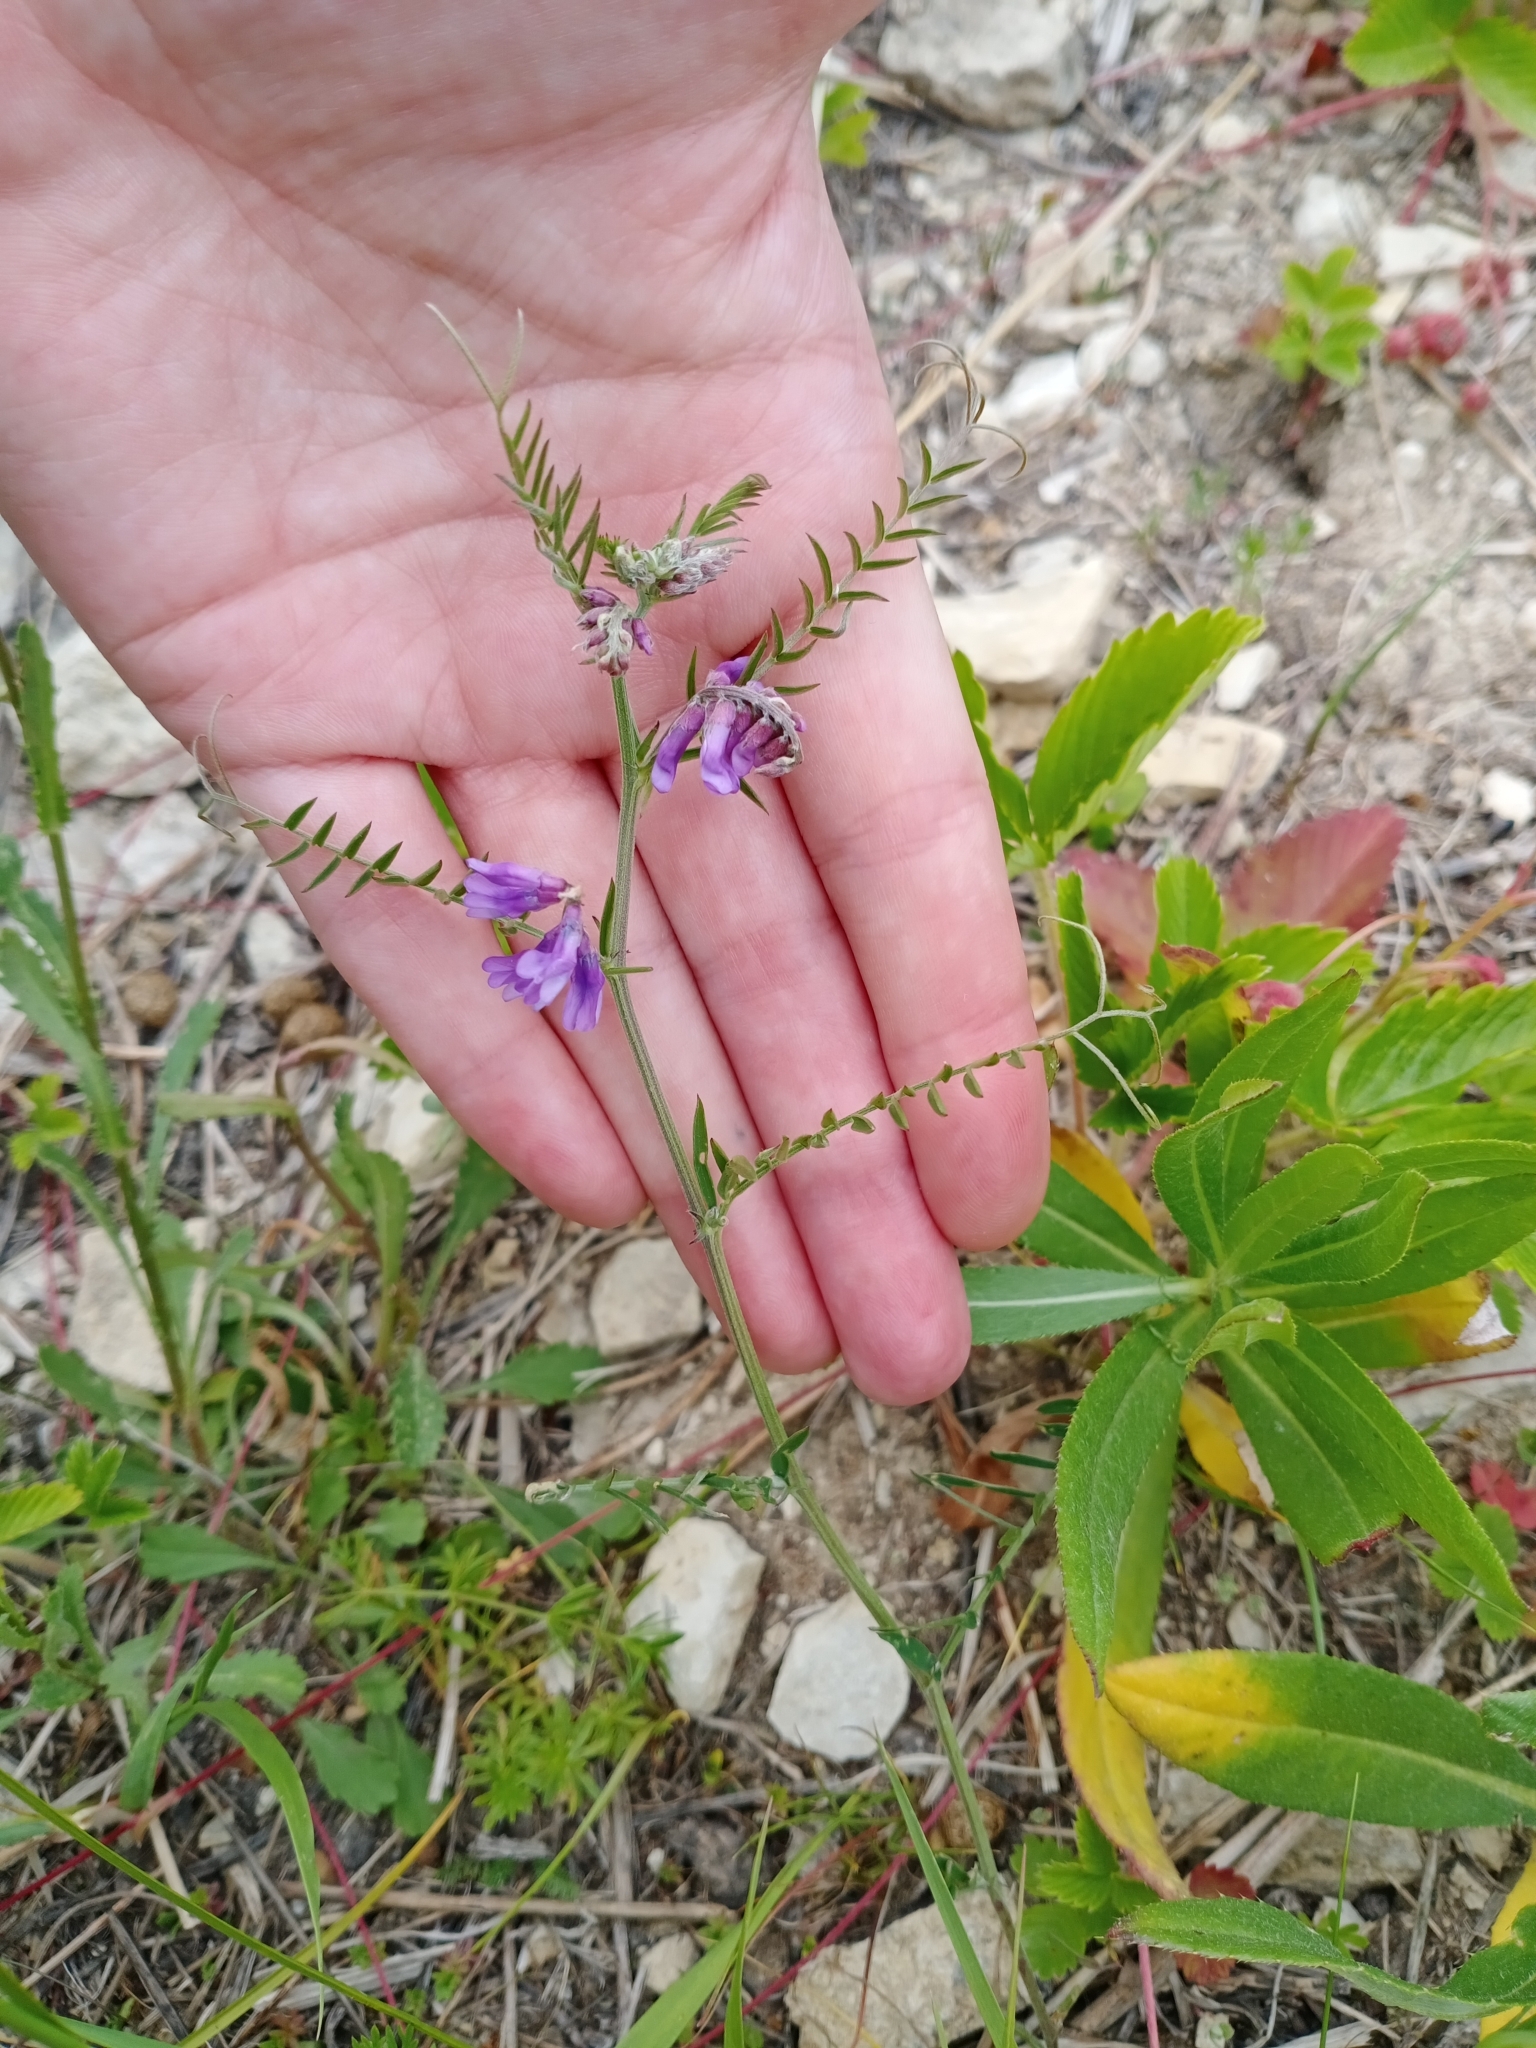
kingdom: Plantae
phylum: Tracheophyta
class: Magnoliopsida
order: Fabales
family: Fabaceae
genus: Vicia
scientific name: Vicia cracca
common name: Bird vetch
